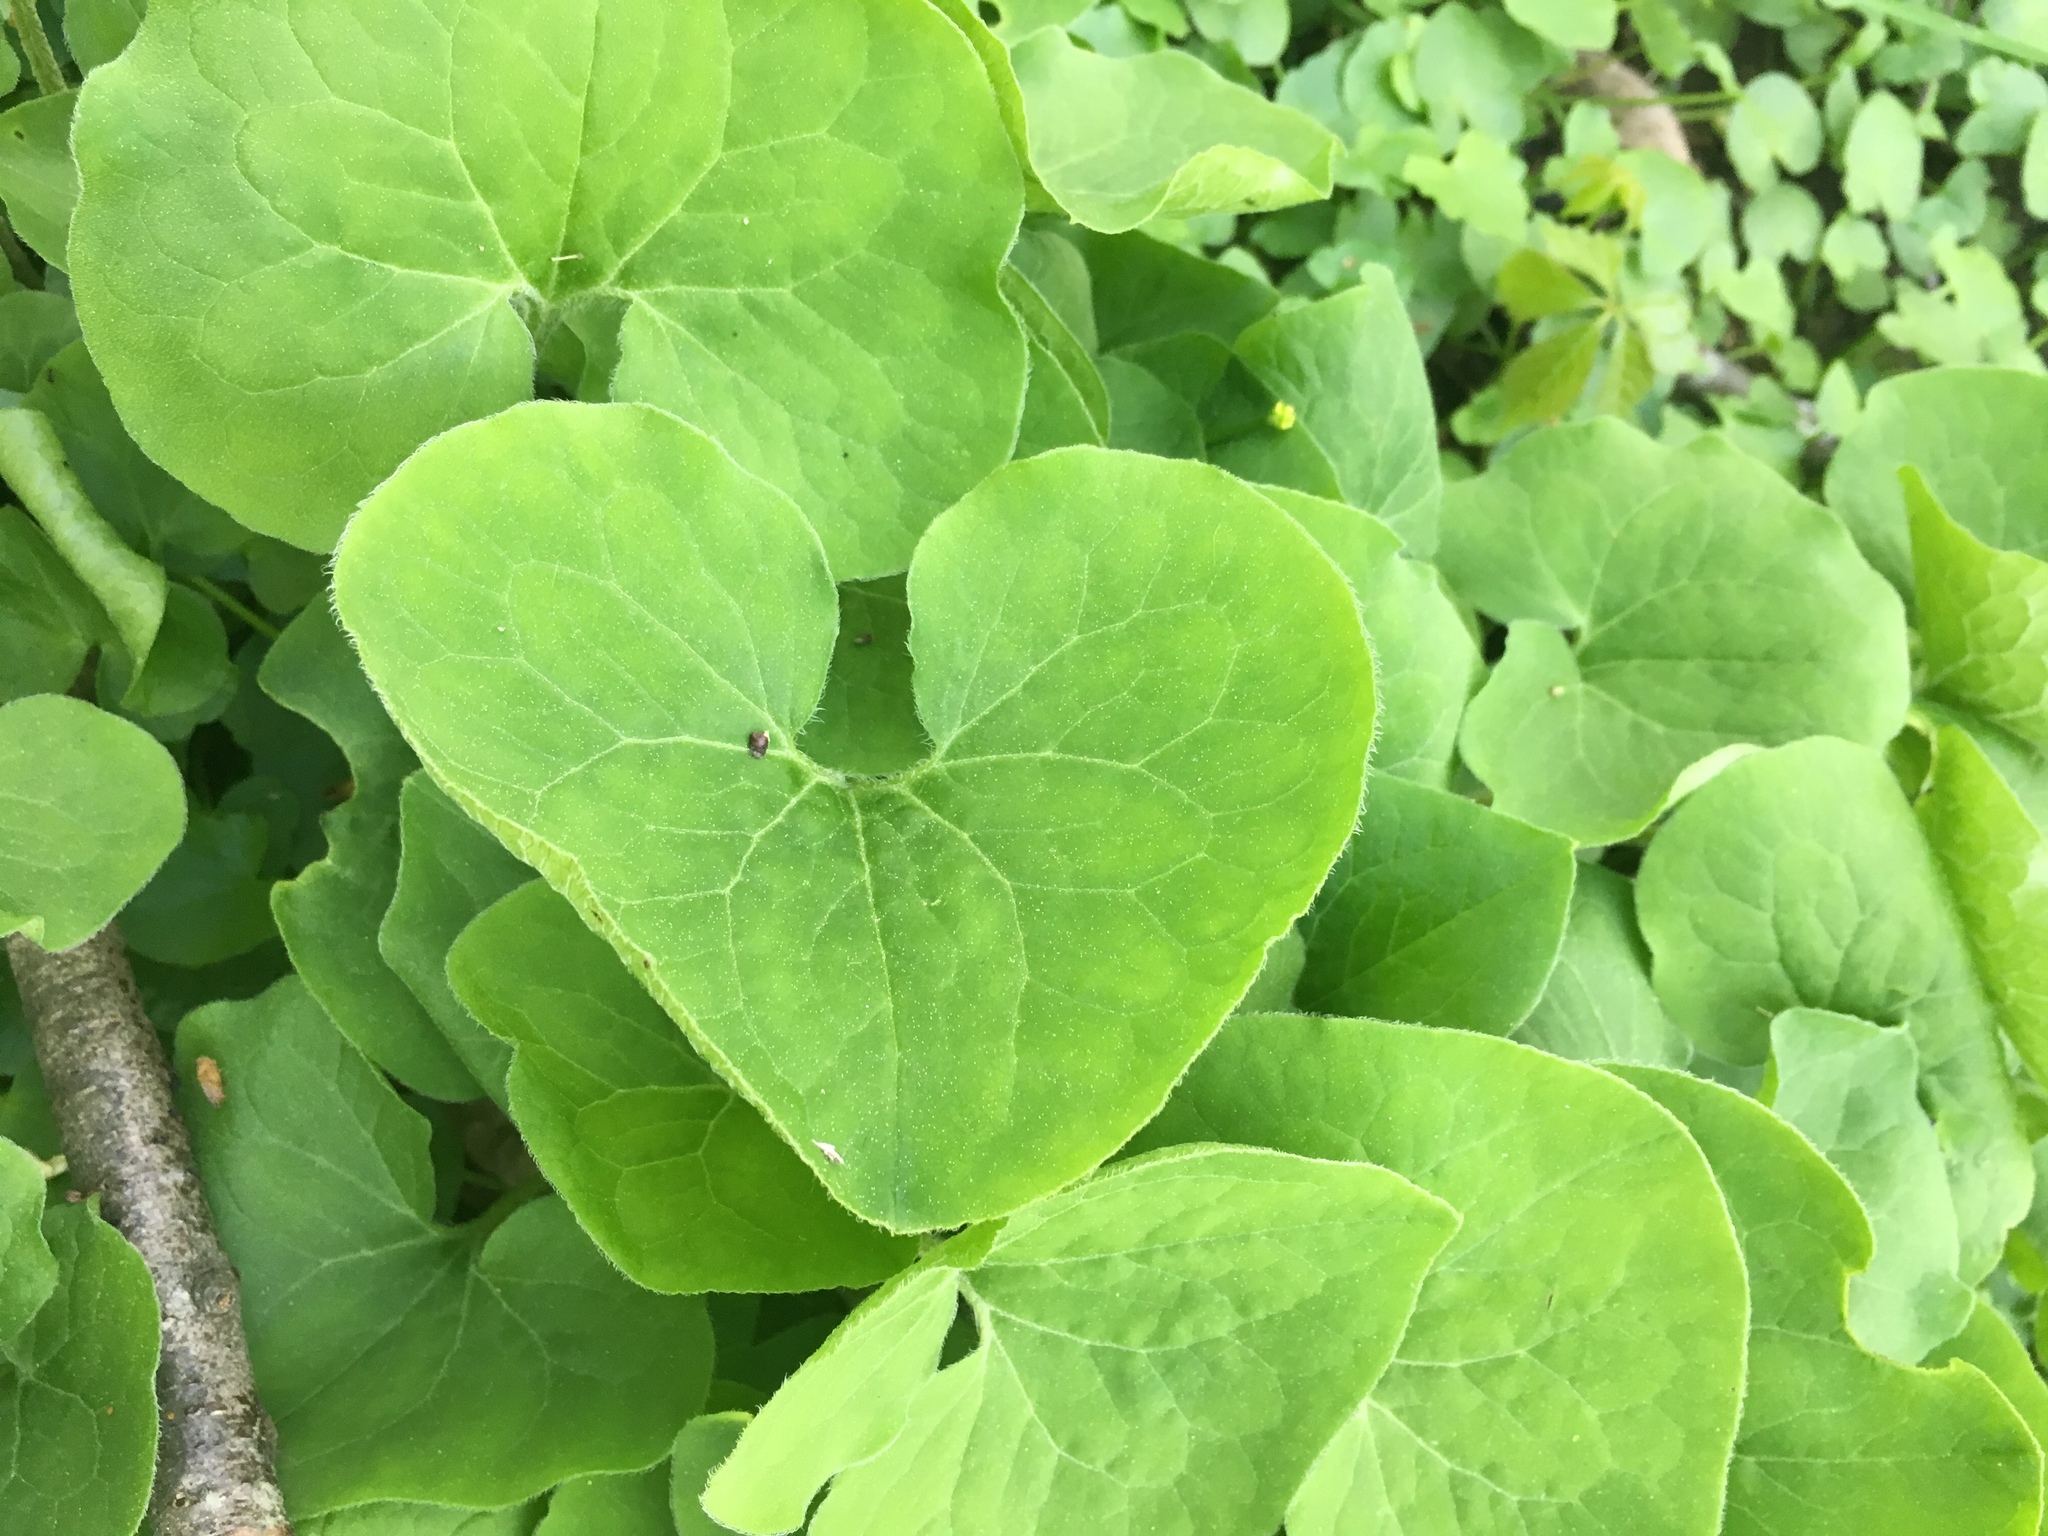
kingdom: Plantae
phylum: Tracheophyta
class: Magnoliopsida
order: Piperales
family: Aristolochiaceae
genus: Asarum
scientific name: Asarum canadense
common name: Wild ginger
